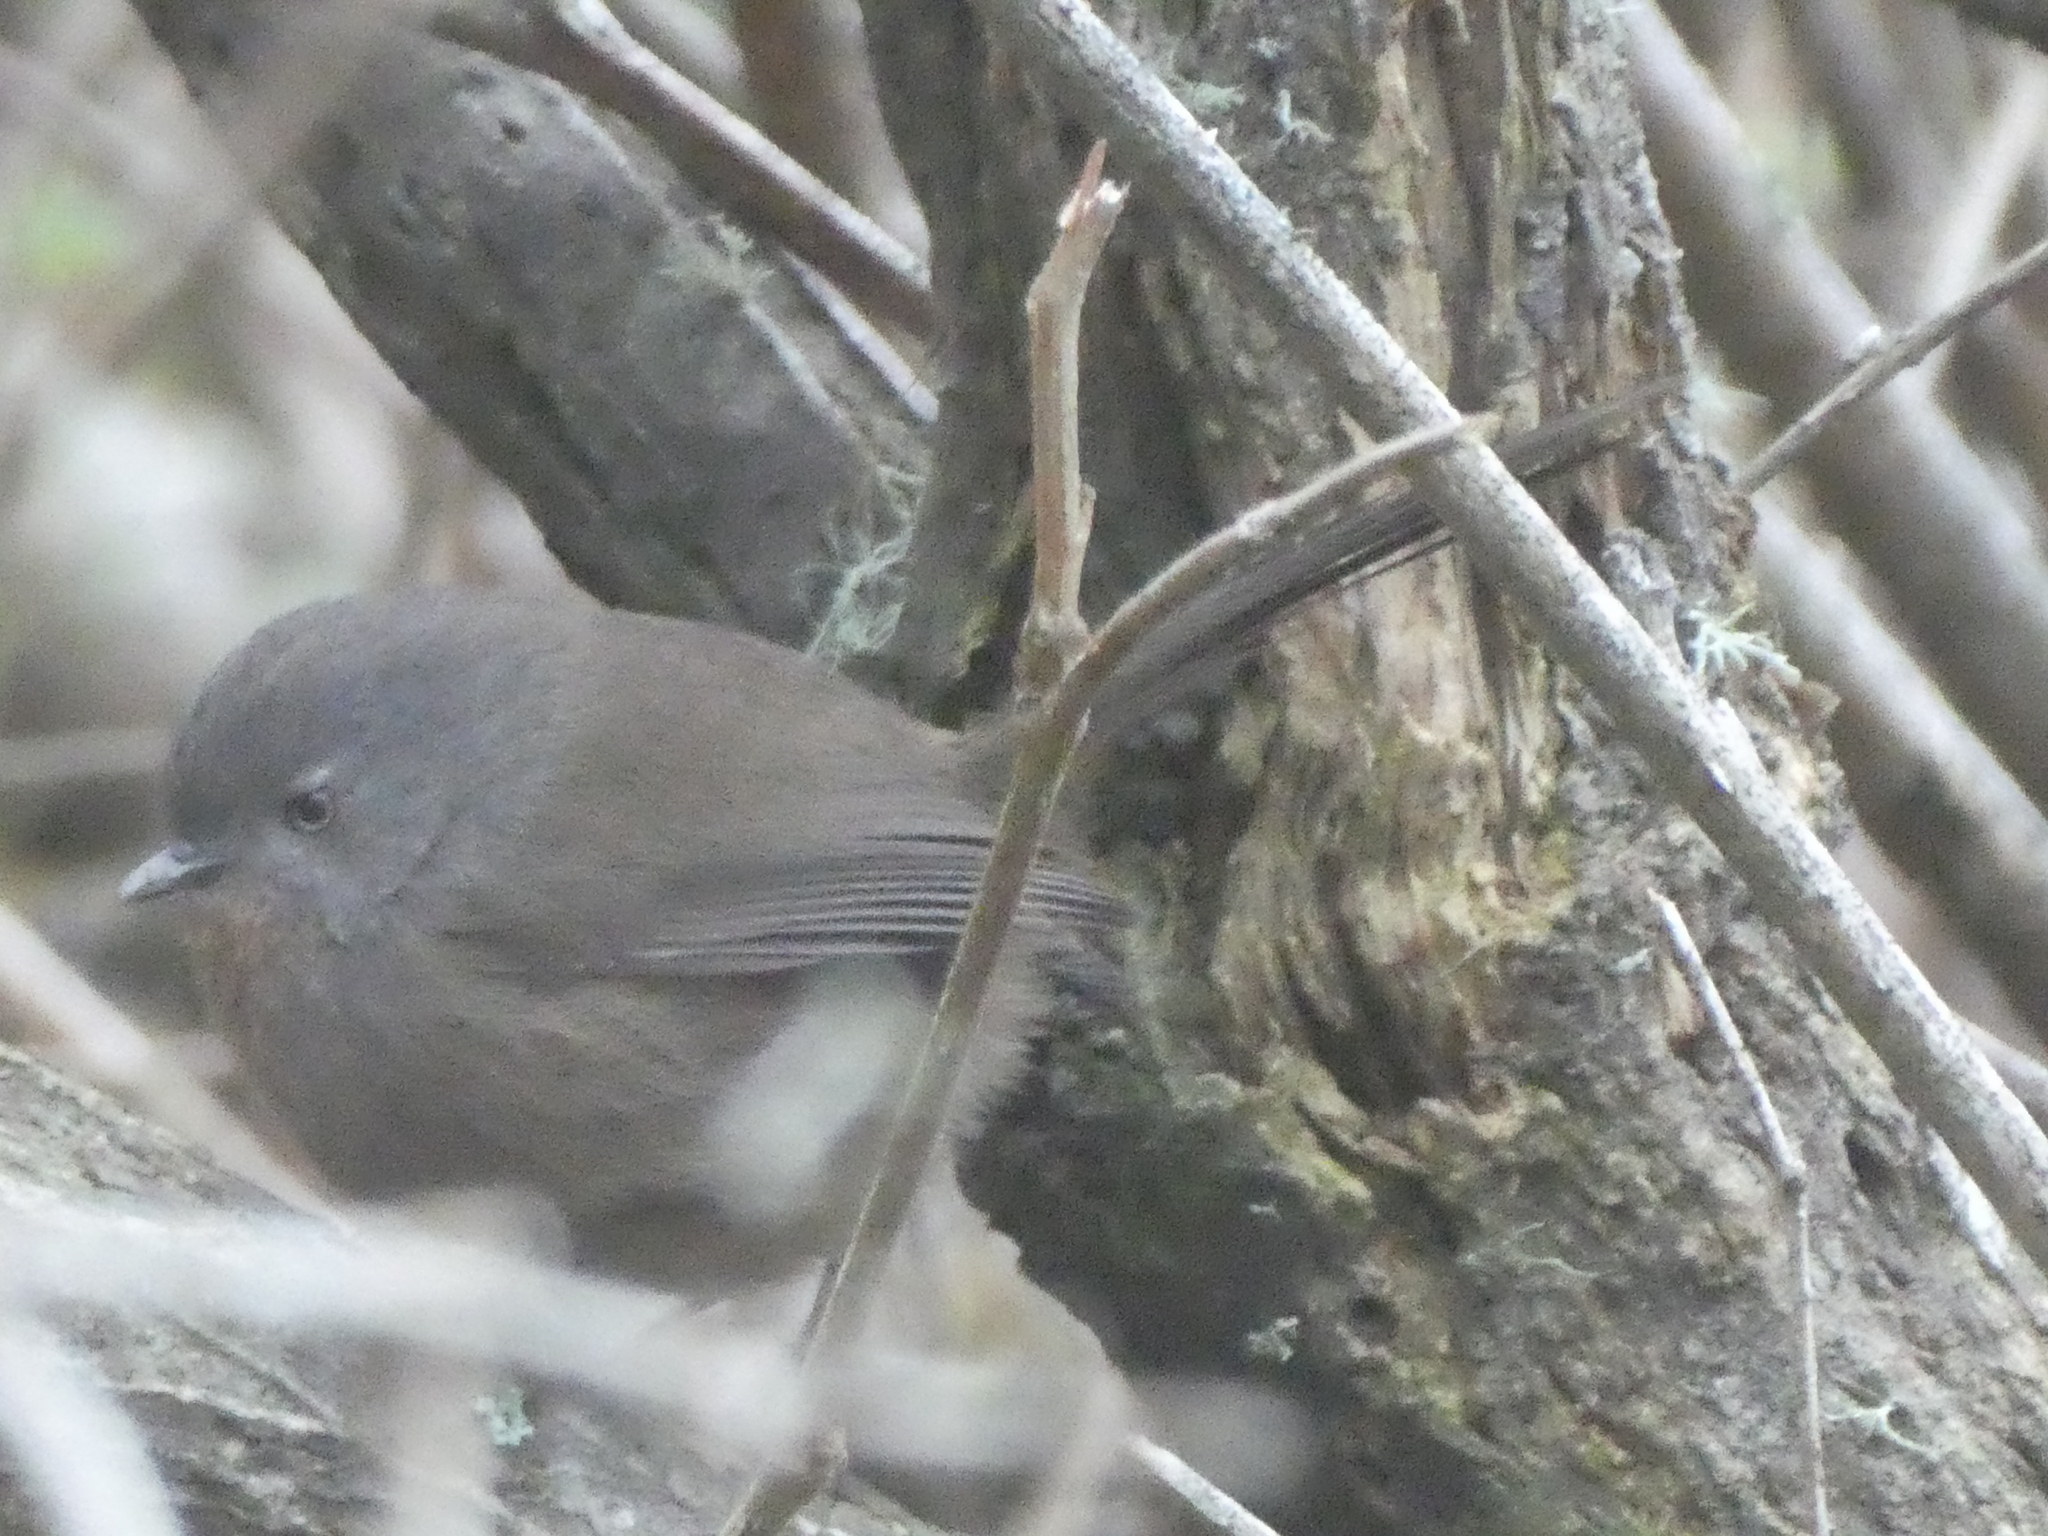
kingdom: Animalia
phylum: Chordata
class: Aves
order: Passeriformes
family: Sylviidae
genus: Chamaea
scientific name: Chamaea fasciata
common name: Wrentit
